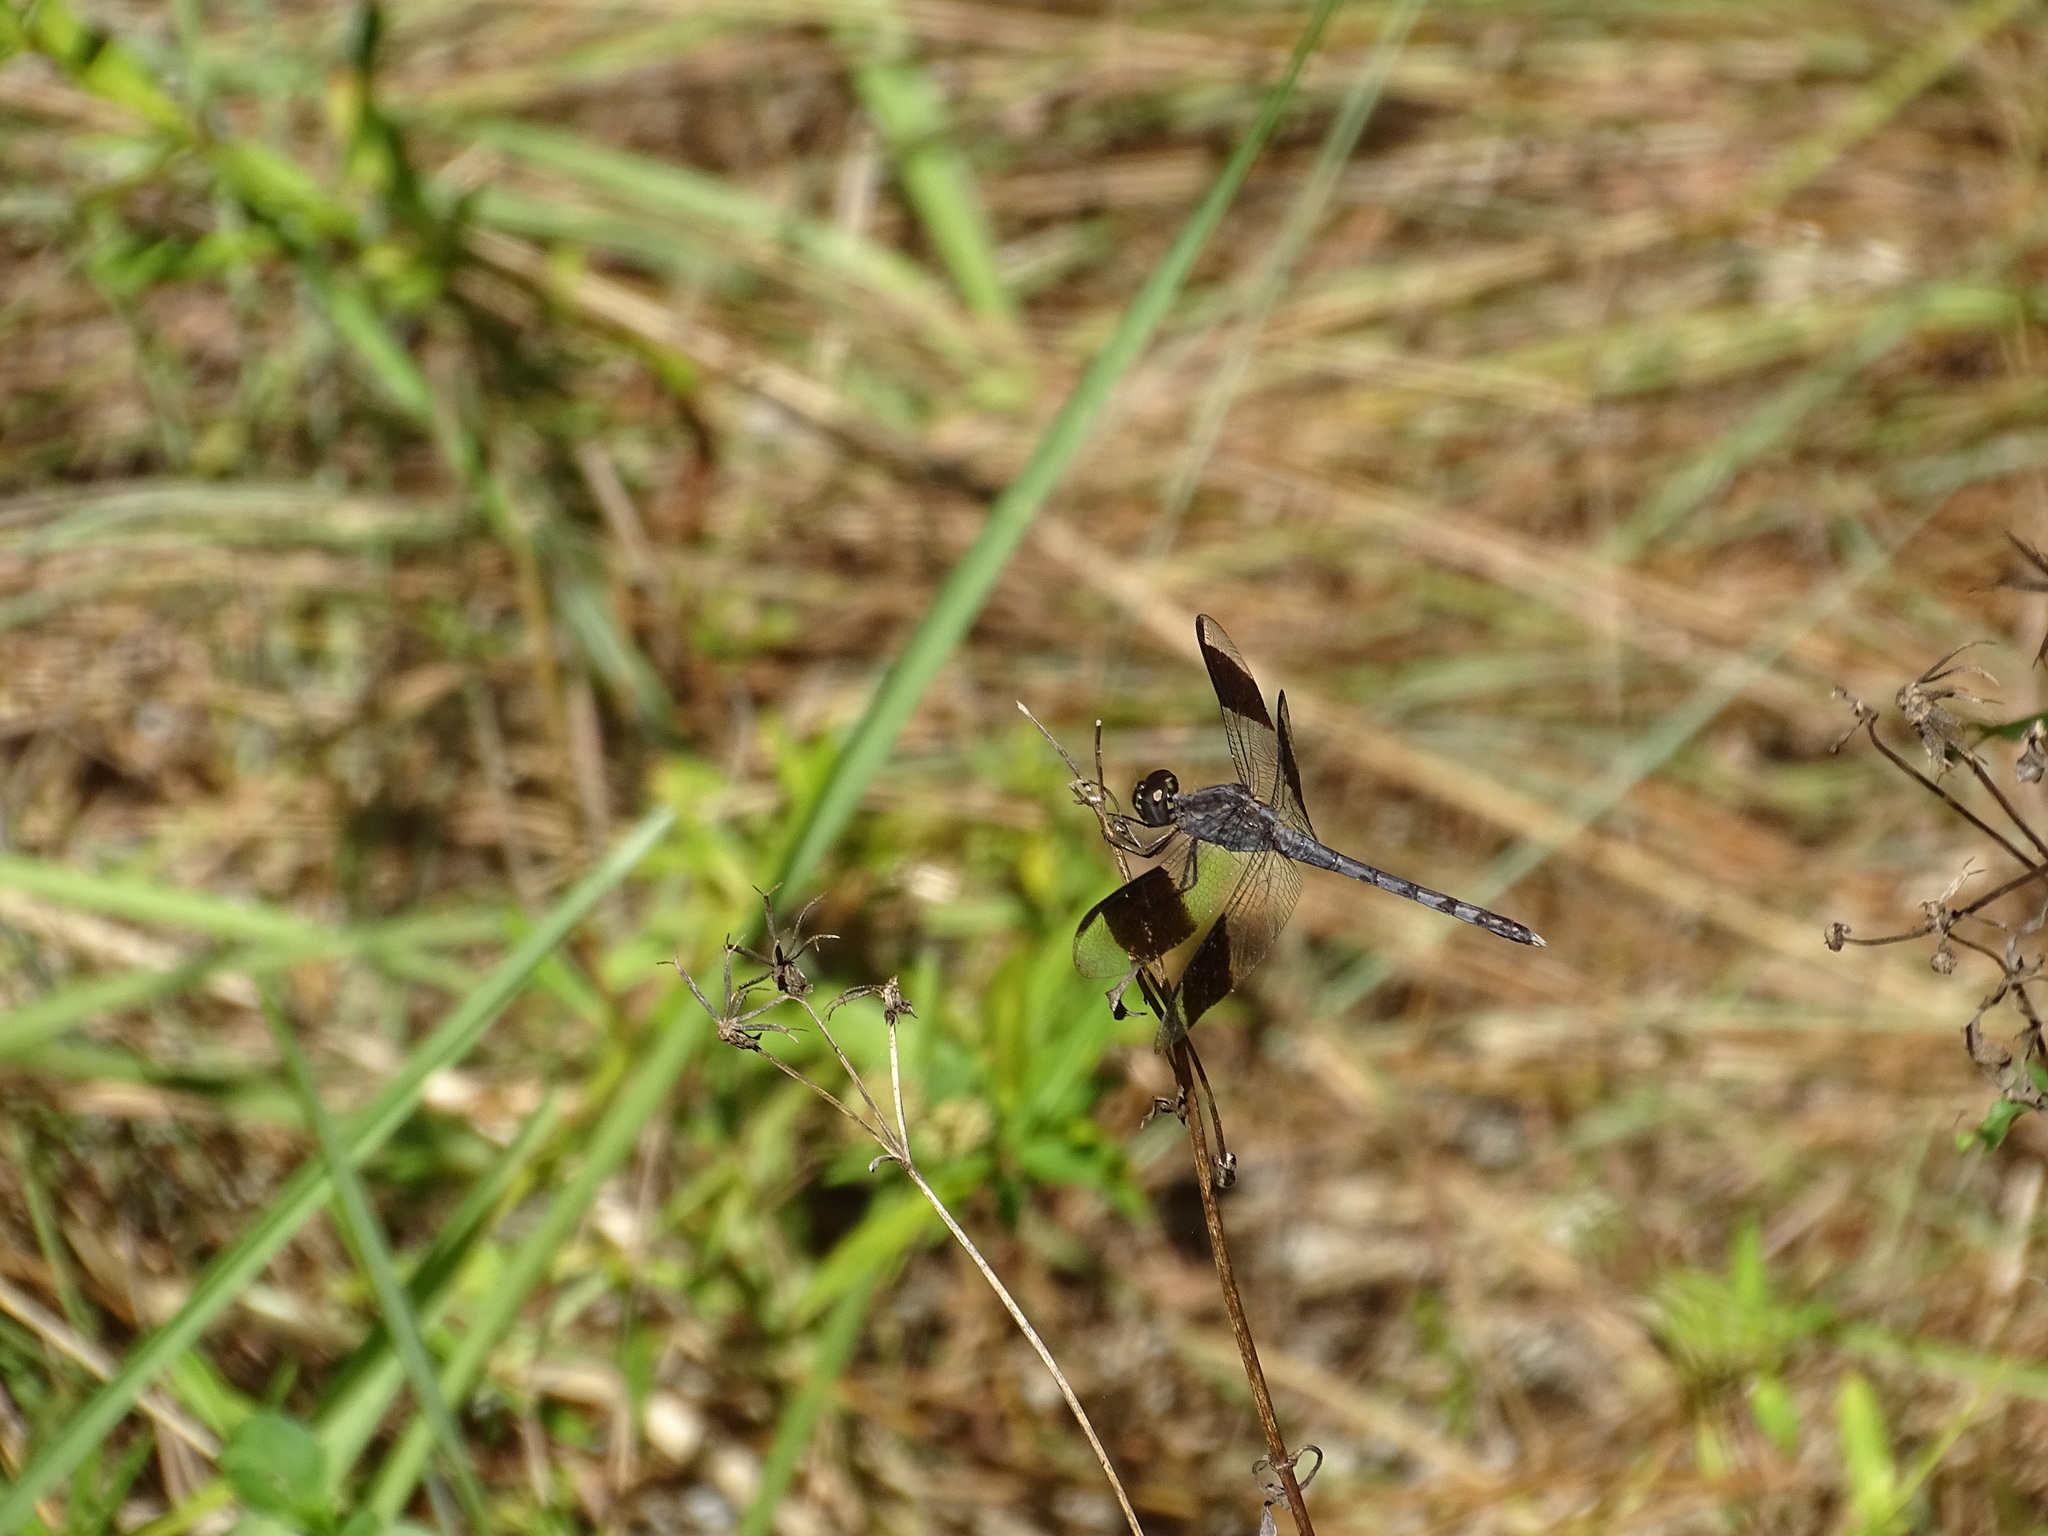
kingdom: Animalia
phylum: Arthropoda
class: Insecta
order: Odonata
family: Libellulidae
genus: Erythrodiplax
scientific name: Erythrodiplax umbrata
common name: Band-winged dragonlet
